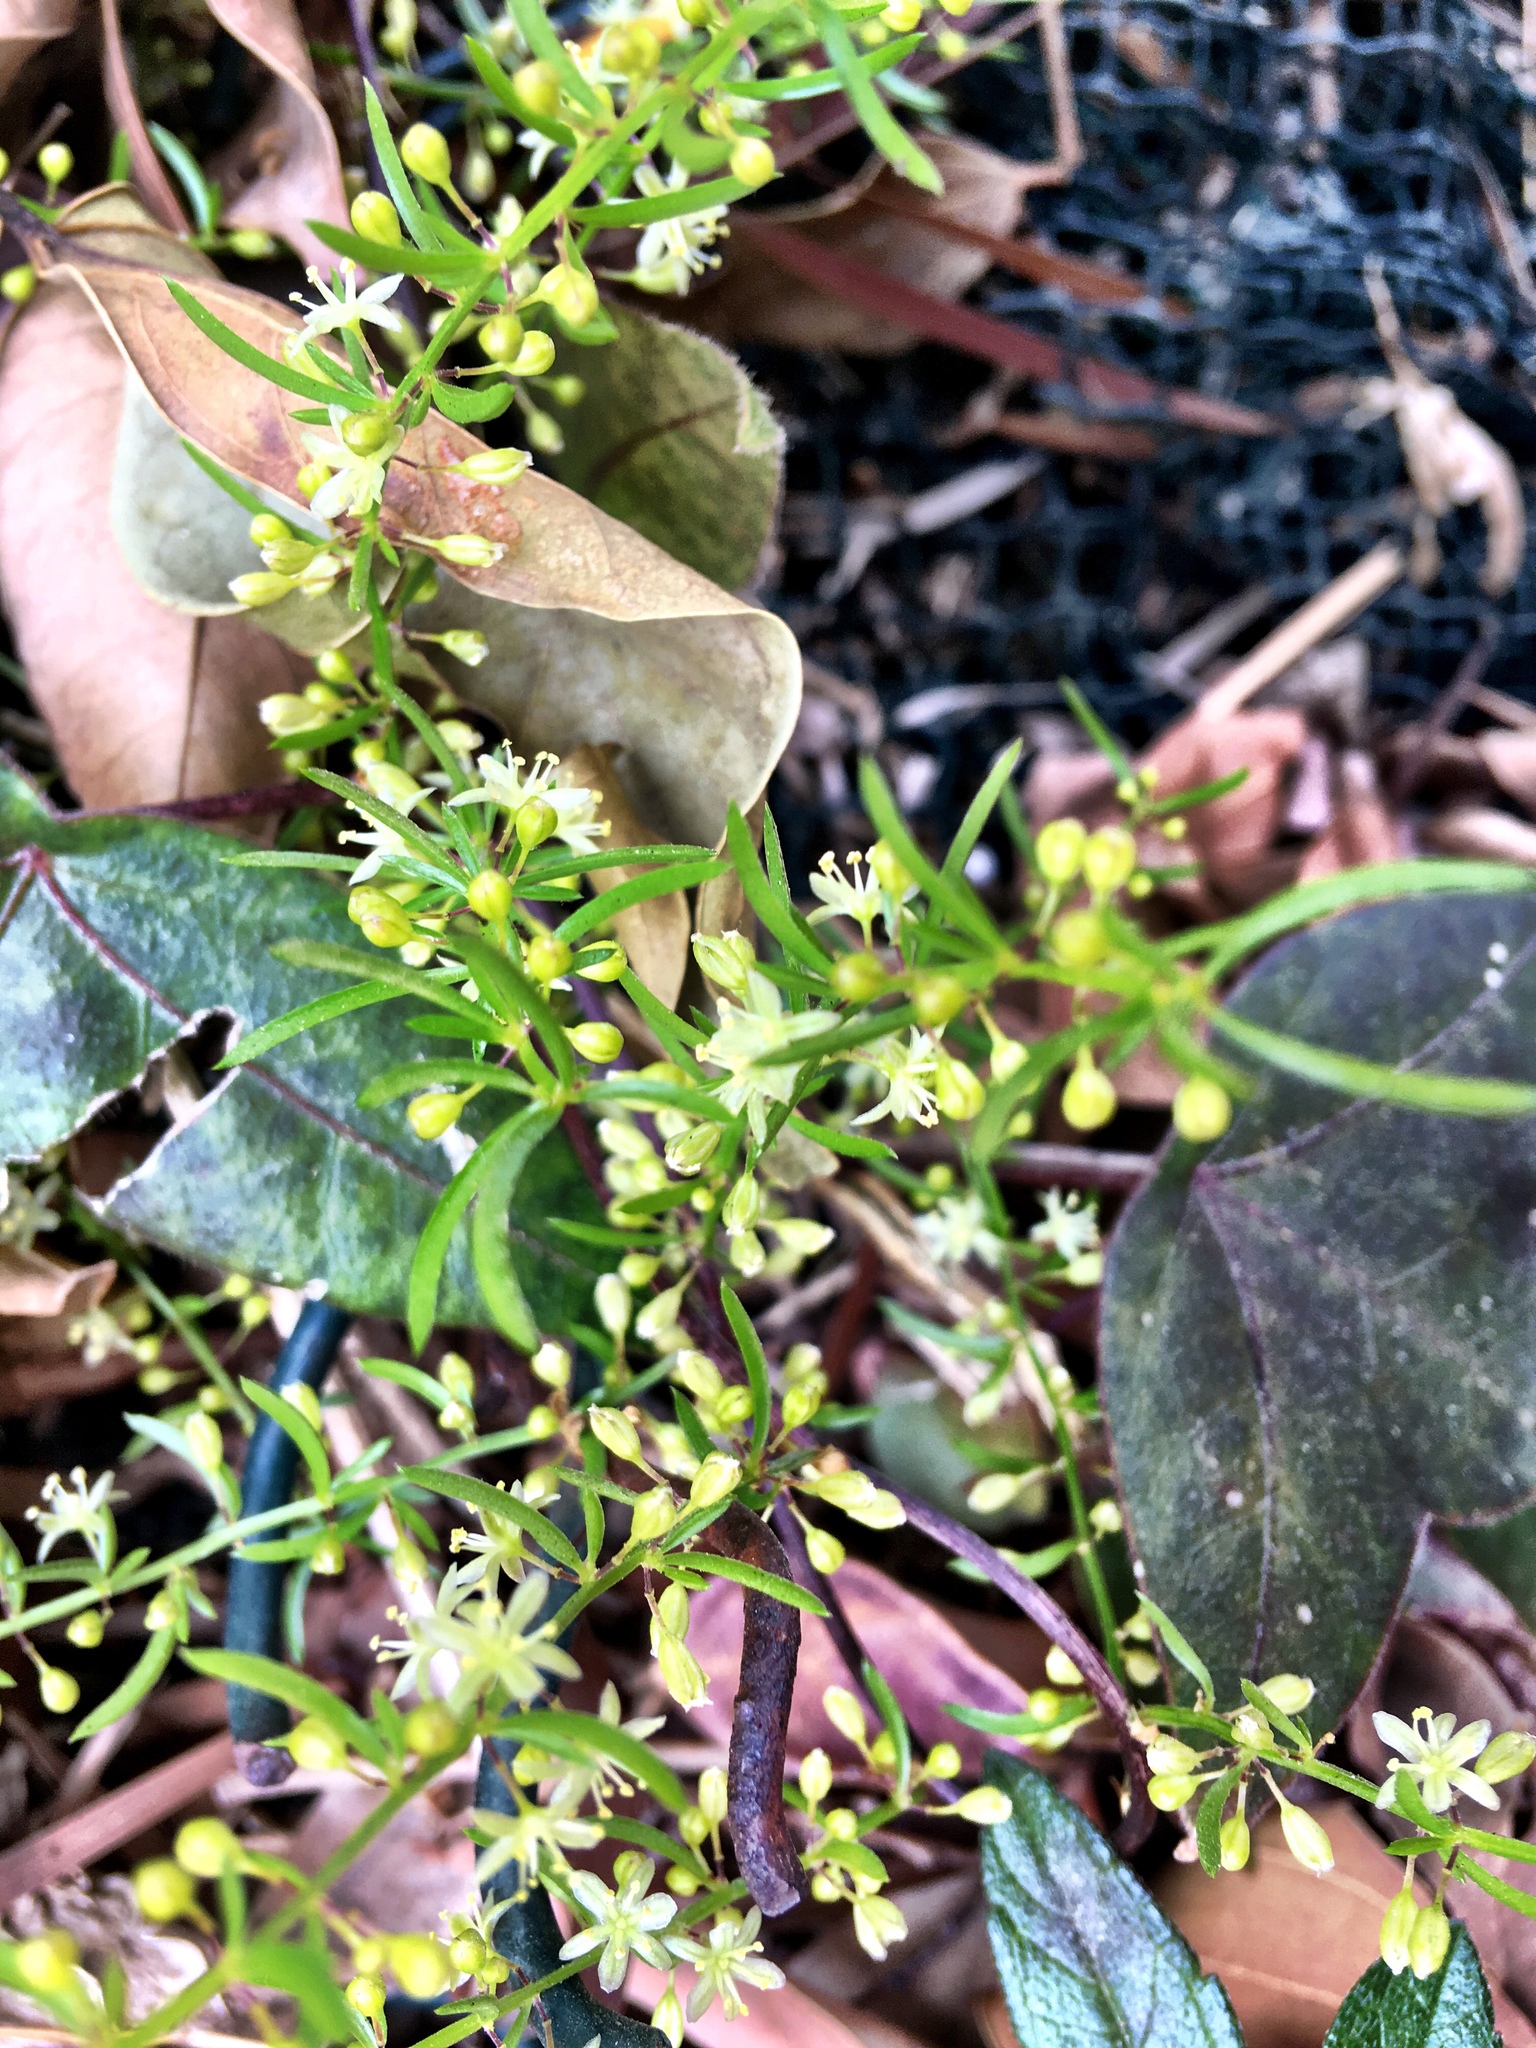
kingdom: Plantae
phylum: Tracheophyta
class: Liliopsida
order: Asparagales
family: Asparagaceae
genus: Asparagus
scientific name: Asparagus cochinchinensis
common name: Chinese asparagus
